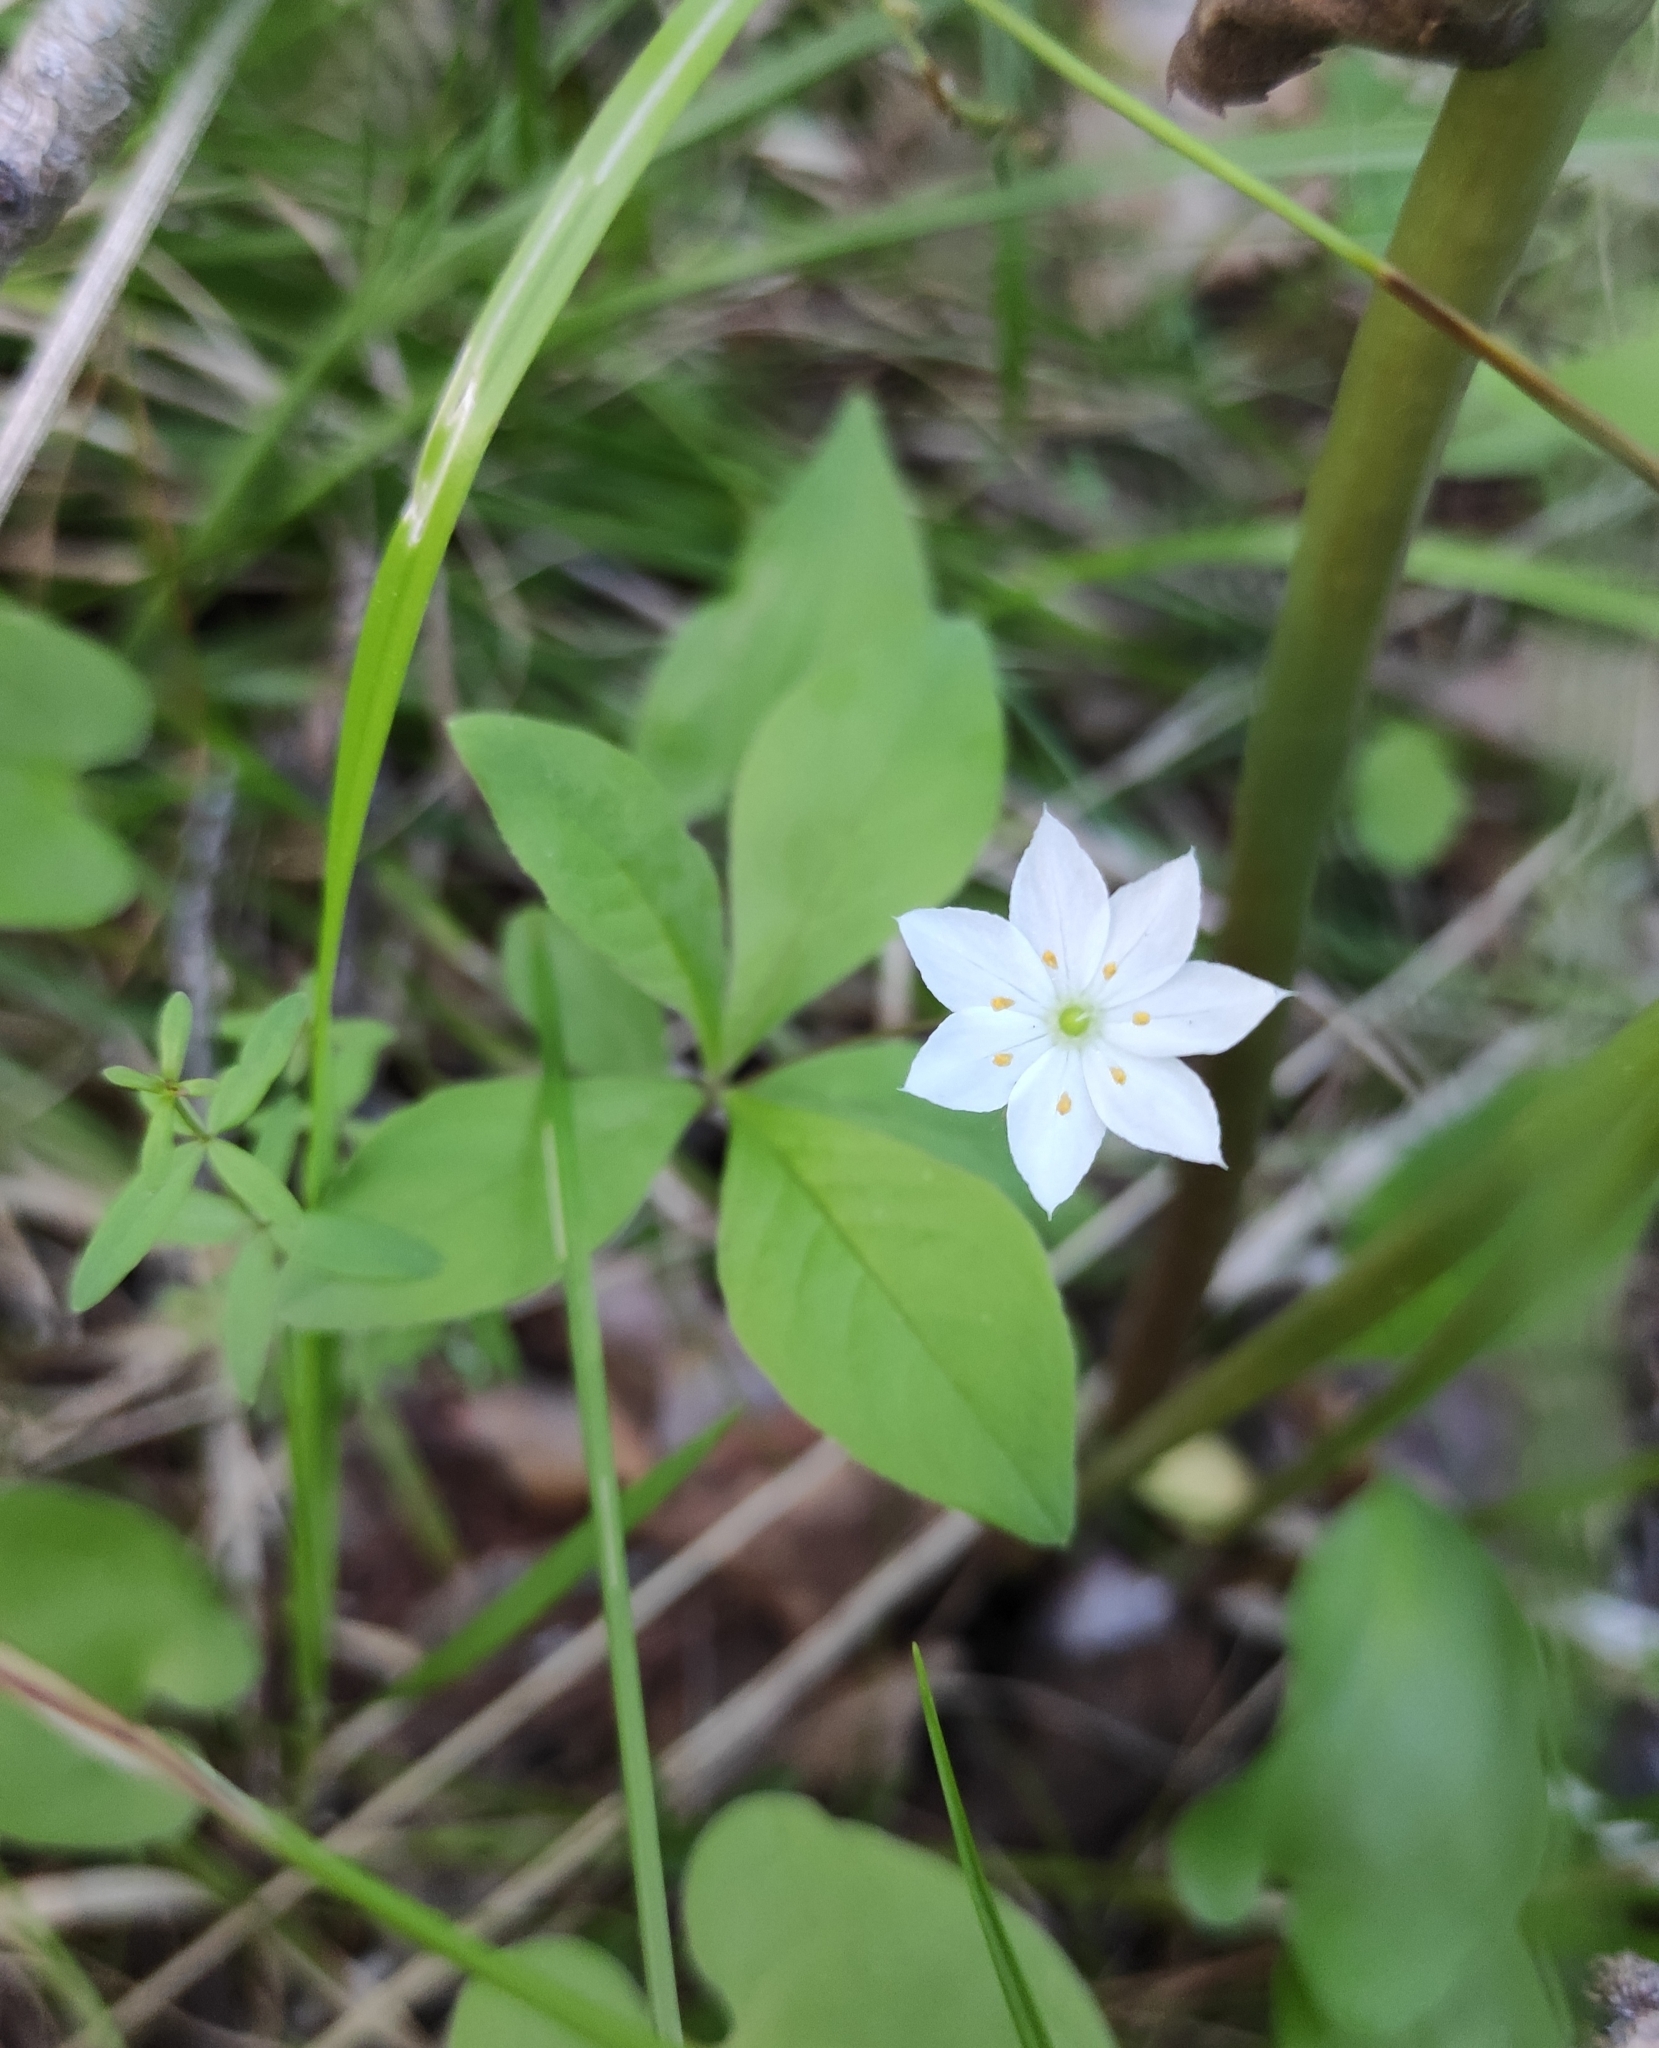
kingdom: Plantae
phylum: Tracheophyta
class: Magnoliopsida
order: Ericales
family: Primulaceae
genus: Lysimachia
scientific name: Lysimachia europaea
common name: Arctic starflower
